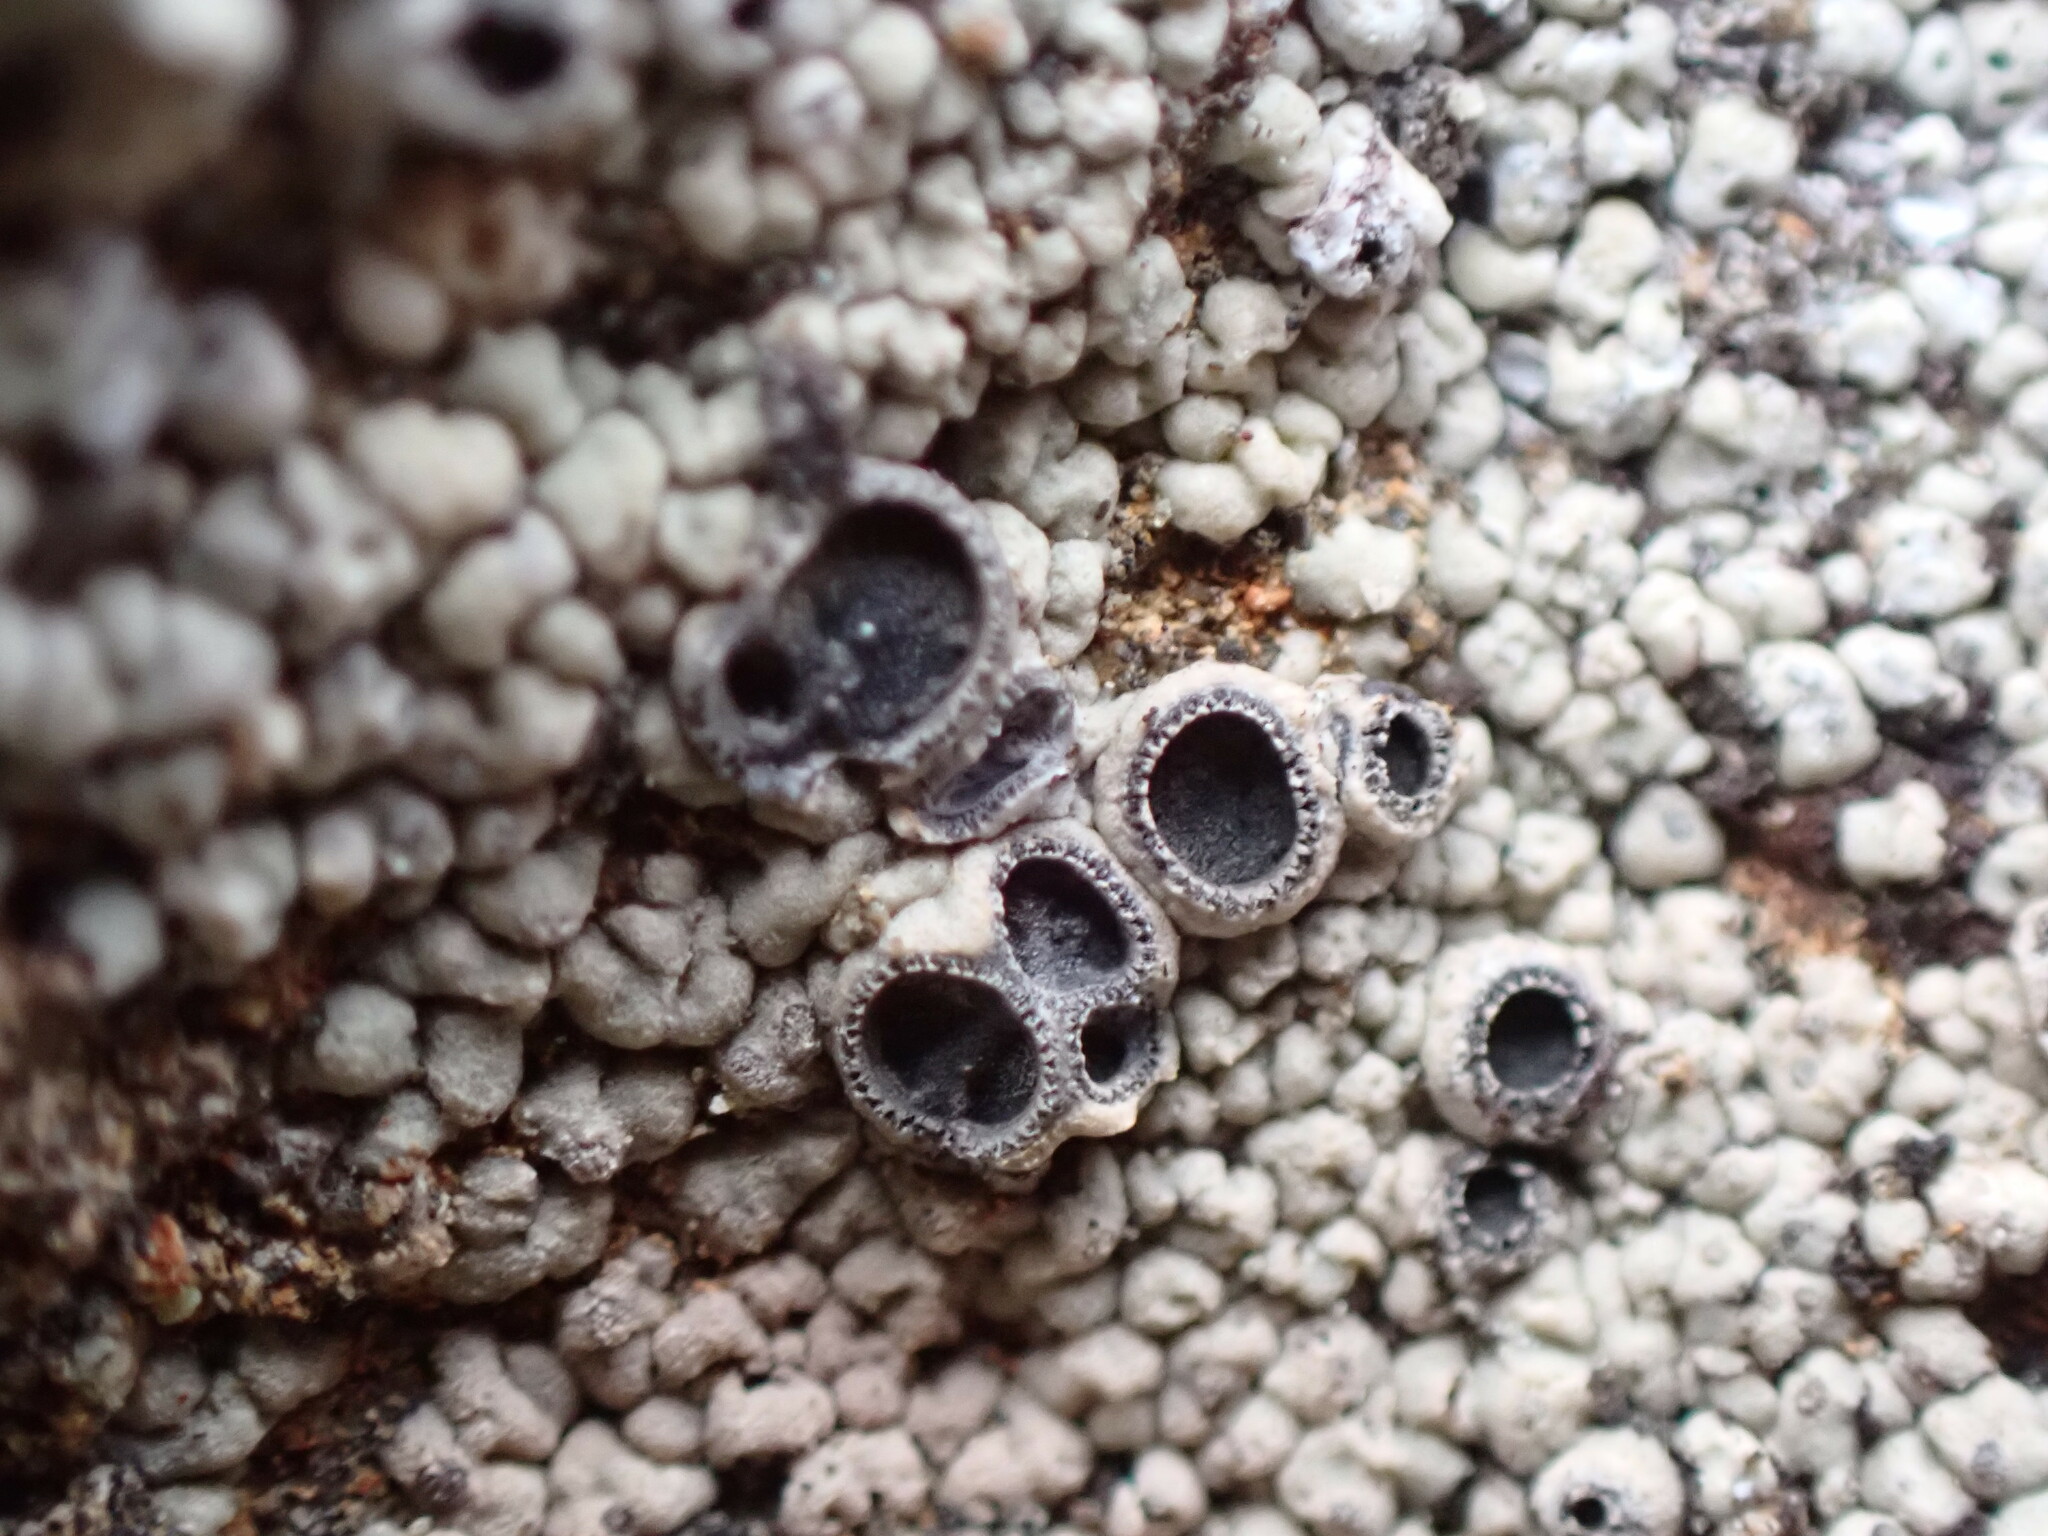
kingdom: Fungi
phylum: Ascomycota
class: Lecanoromycetes
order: Ostropales
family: Graphidaceae
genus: Diploschistes
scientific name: Diploschistes scruposus
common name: Crater lichen
